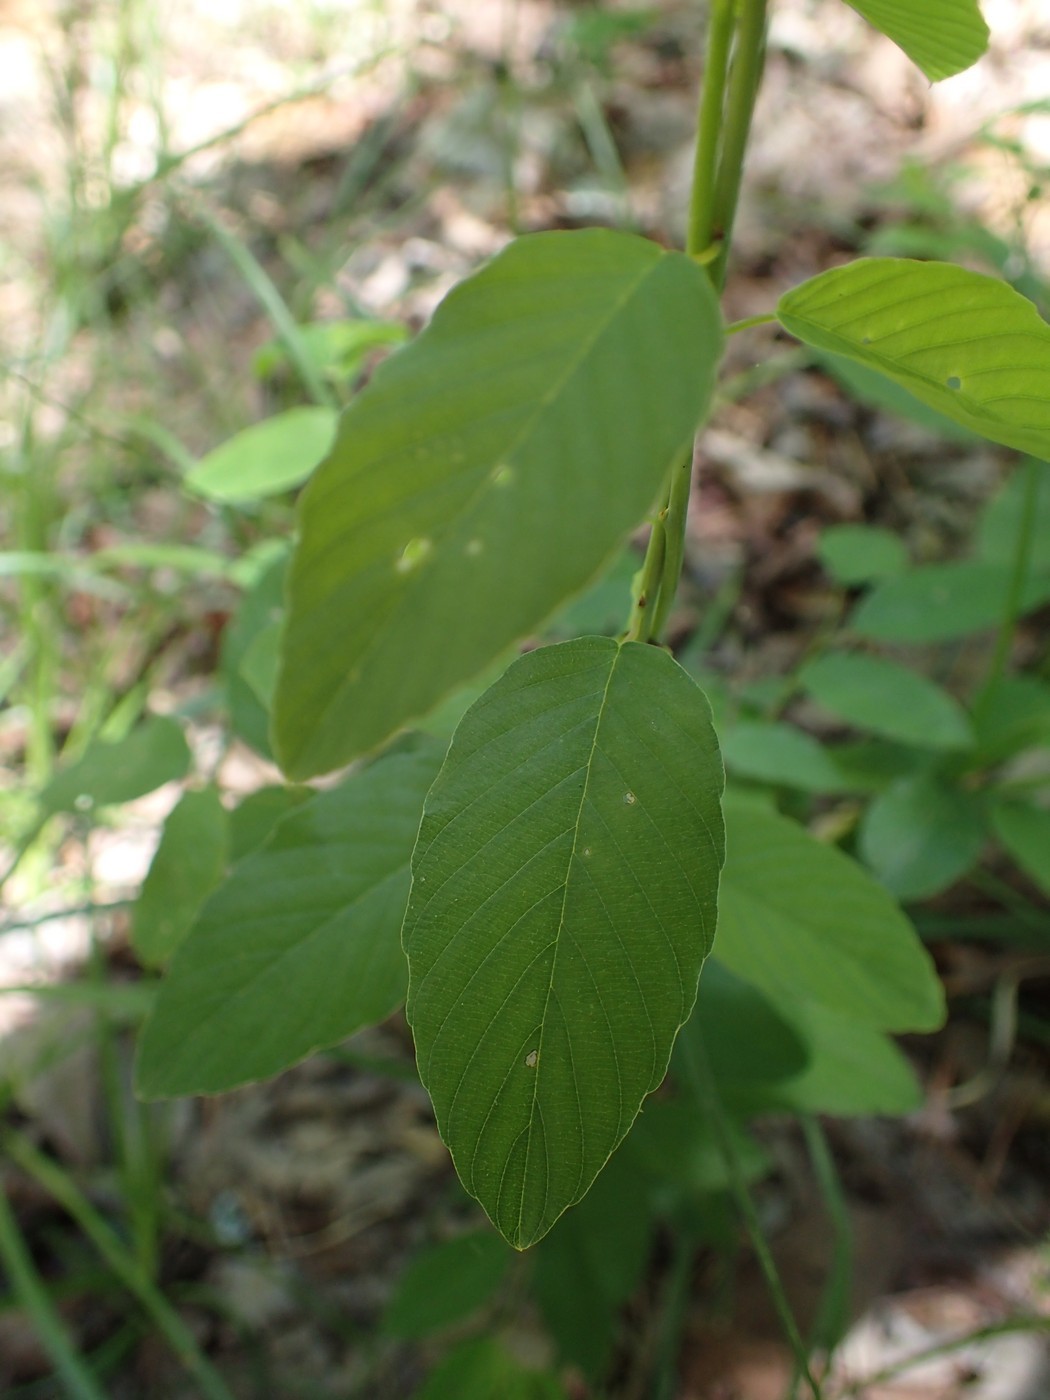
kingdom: Plantae
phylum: Tracheophyta
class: Magnoliopsida
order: Rosales
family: Rhamnaceae
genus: Berchemia
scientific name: Berchemia scandens
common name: Supplejack
